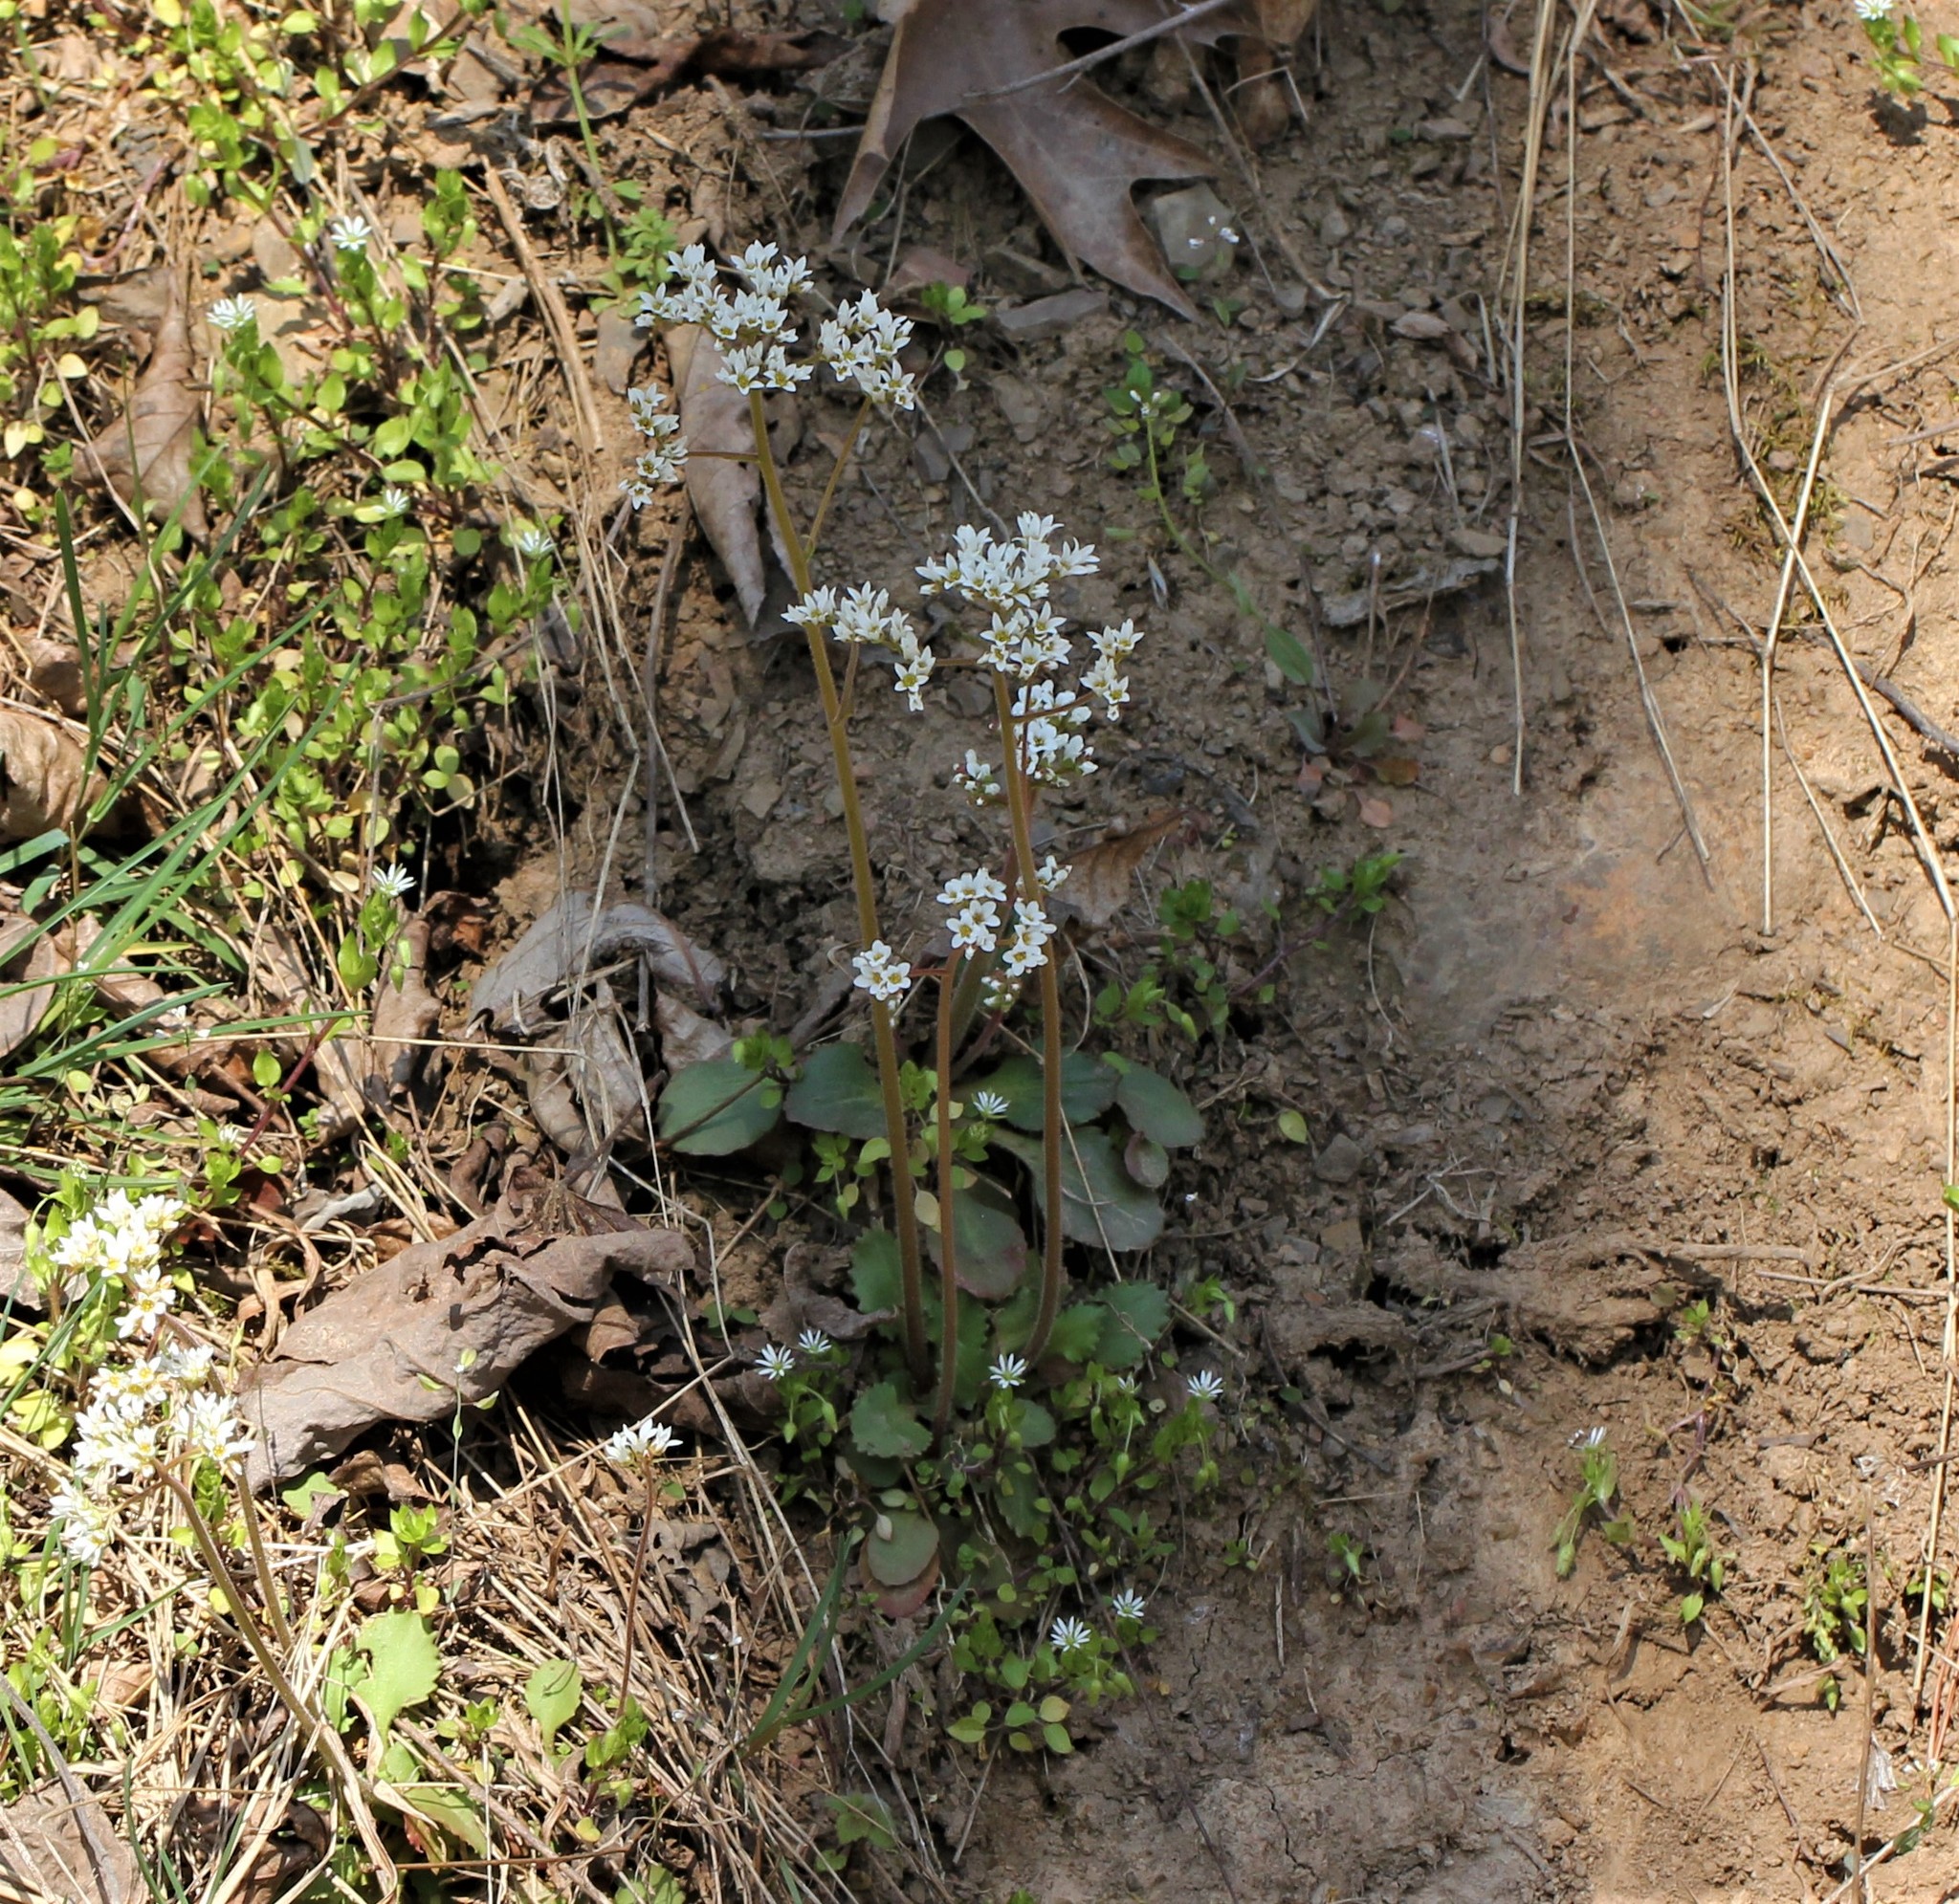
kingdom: Plantae
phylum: Tracheophyta
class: Magnoliopsida
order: Saxifragales
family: Saxifragaceae
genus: Micranthes
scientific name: Micranthes virginiensis
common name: Early saxifrage
